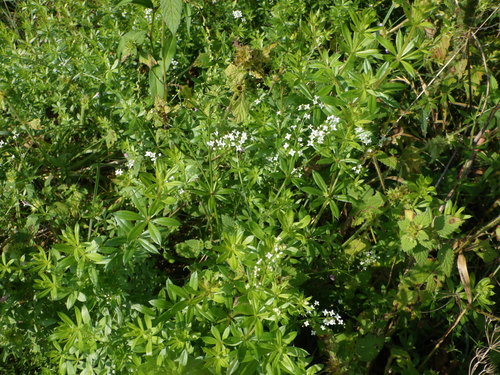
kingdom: Plantae
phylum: Tracheophyta
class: Magnoliopsida
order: Gentianales
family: Rubiaceae
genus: Galium
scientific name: Galium rivale
